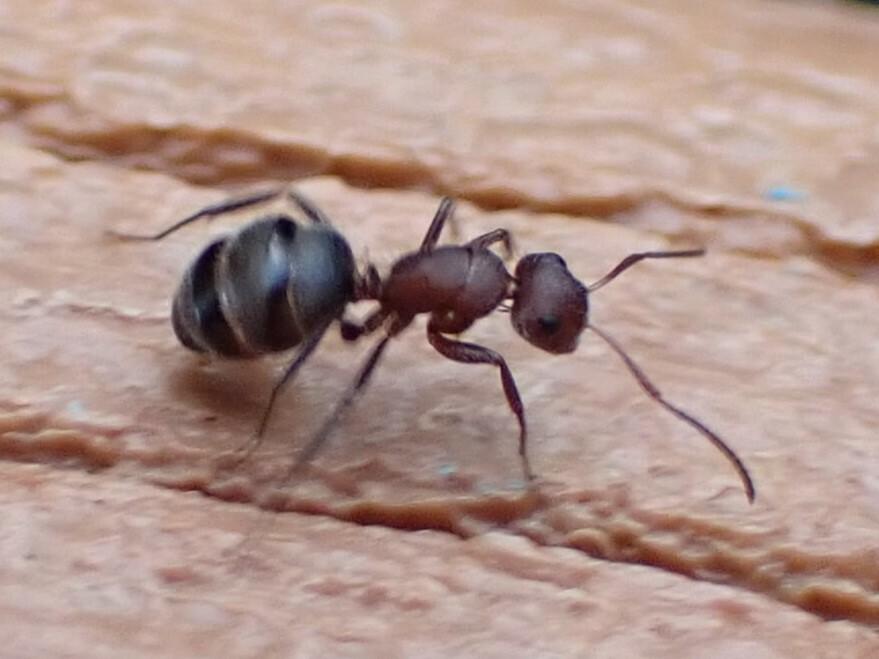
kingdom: Animalia
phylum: Arthropoda
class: Insecta
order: Hymenoptera
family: Formicidae
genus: Camponotus
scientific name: Camponotus planatus
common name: Compact carpenter ant
